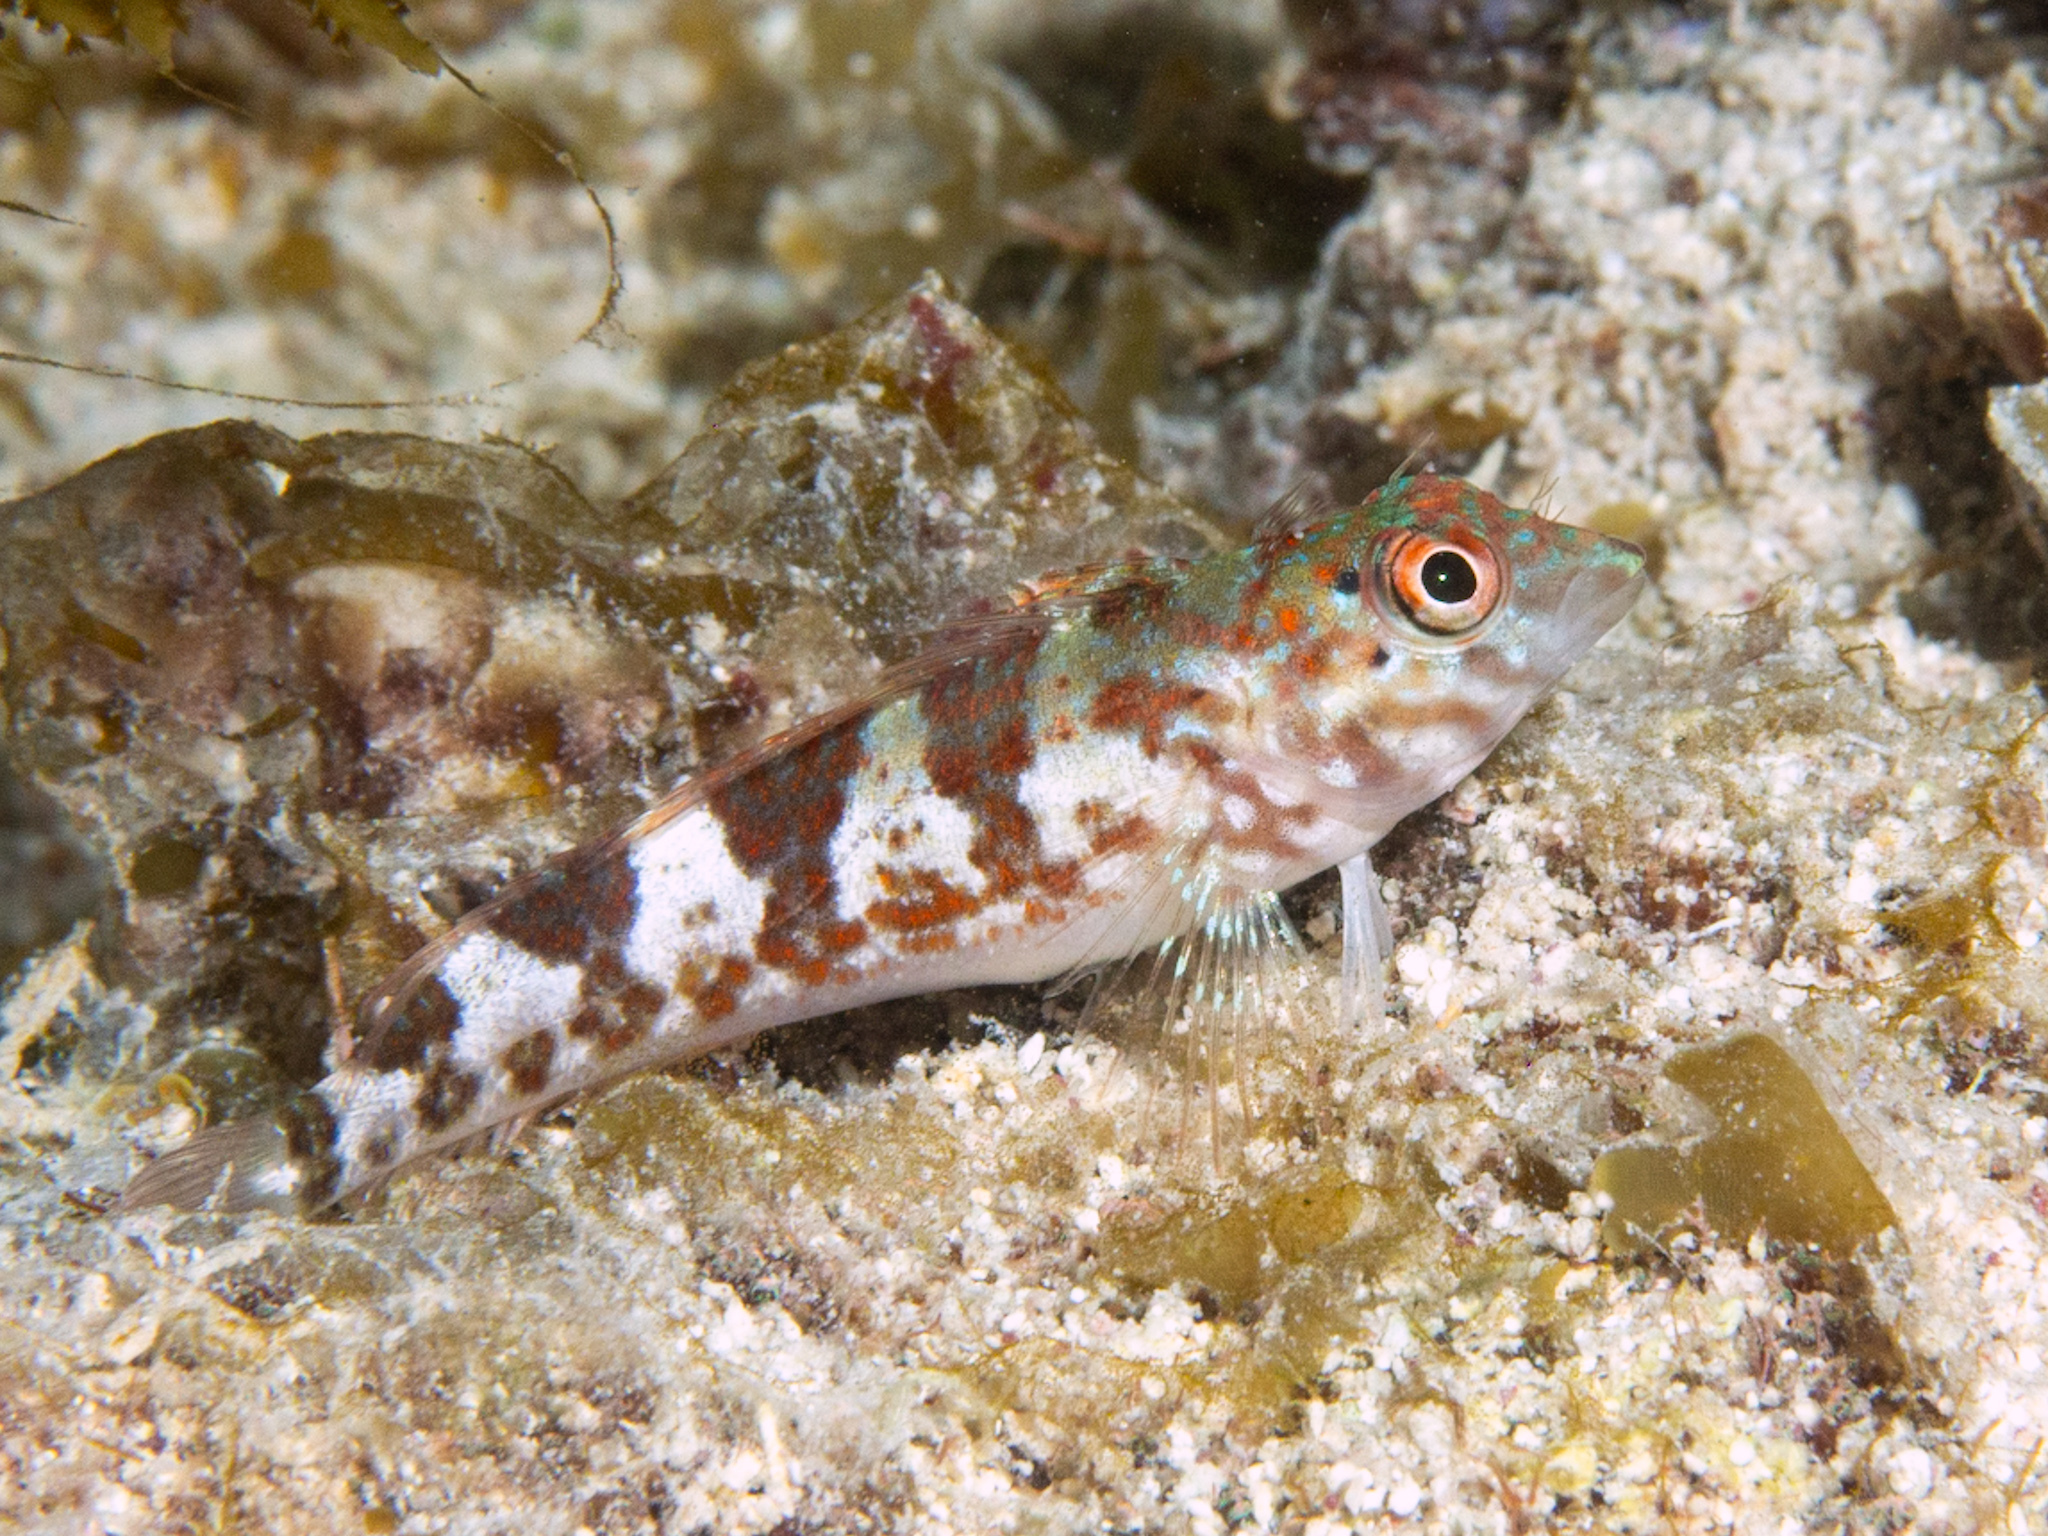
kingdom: Animalia
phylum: Chordata
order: Perciformes
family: Labrisomidae
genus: Malacoctenus
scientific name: Malacoctenus triangulatus
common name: Saddled blenny
